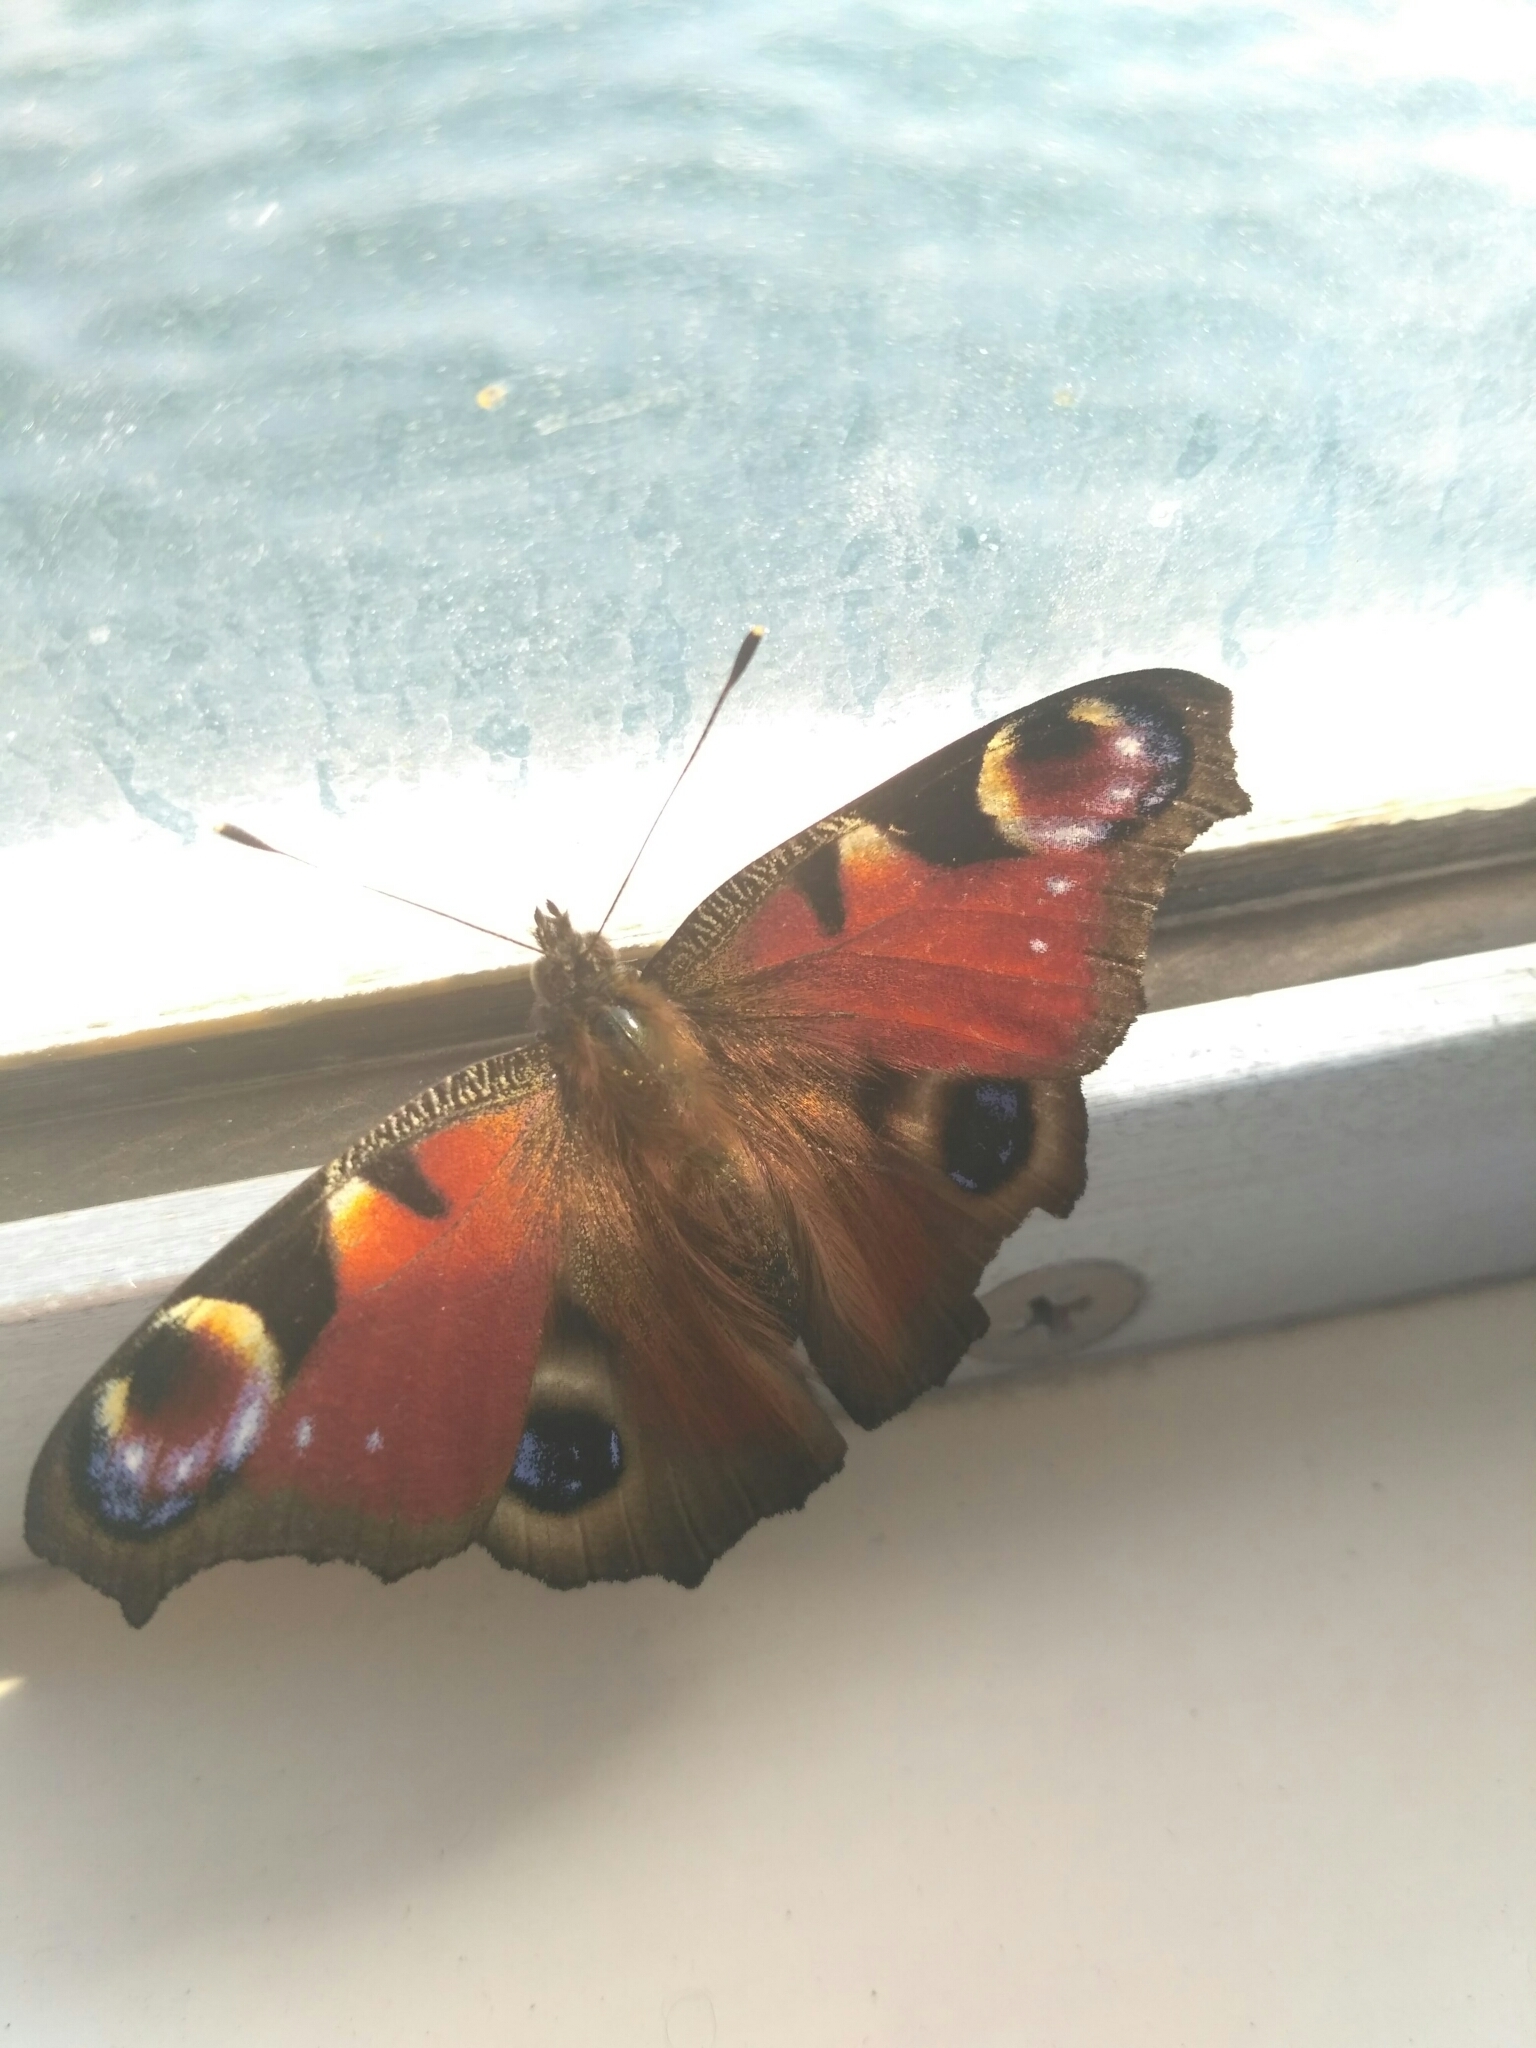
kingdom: Animalia
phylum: Arthropoda
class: Insecta
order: Lepidoptera
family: Nymphalidae
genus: Aglais
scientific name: Aglais io
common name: Peacock
